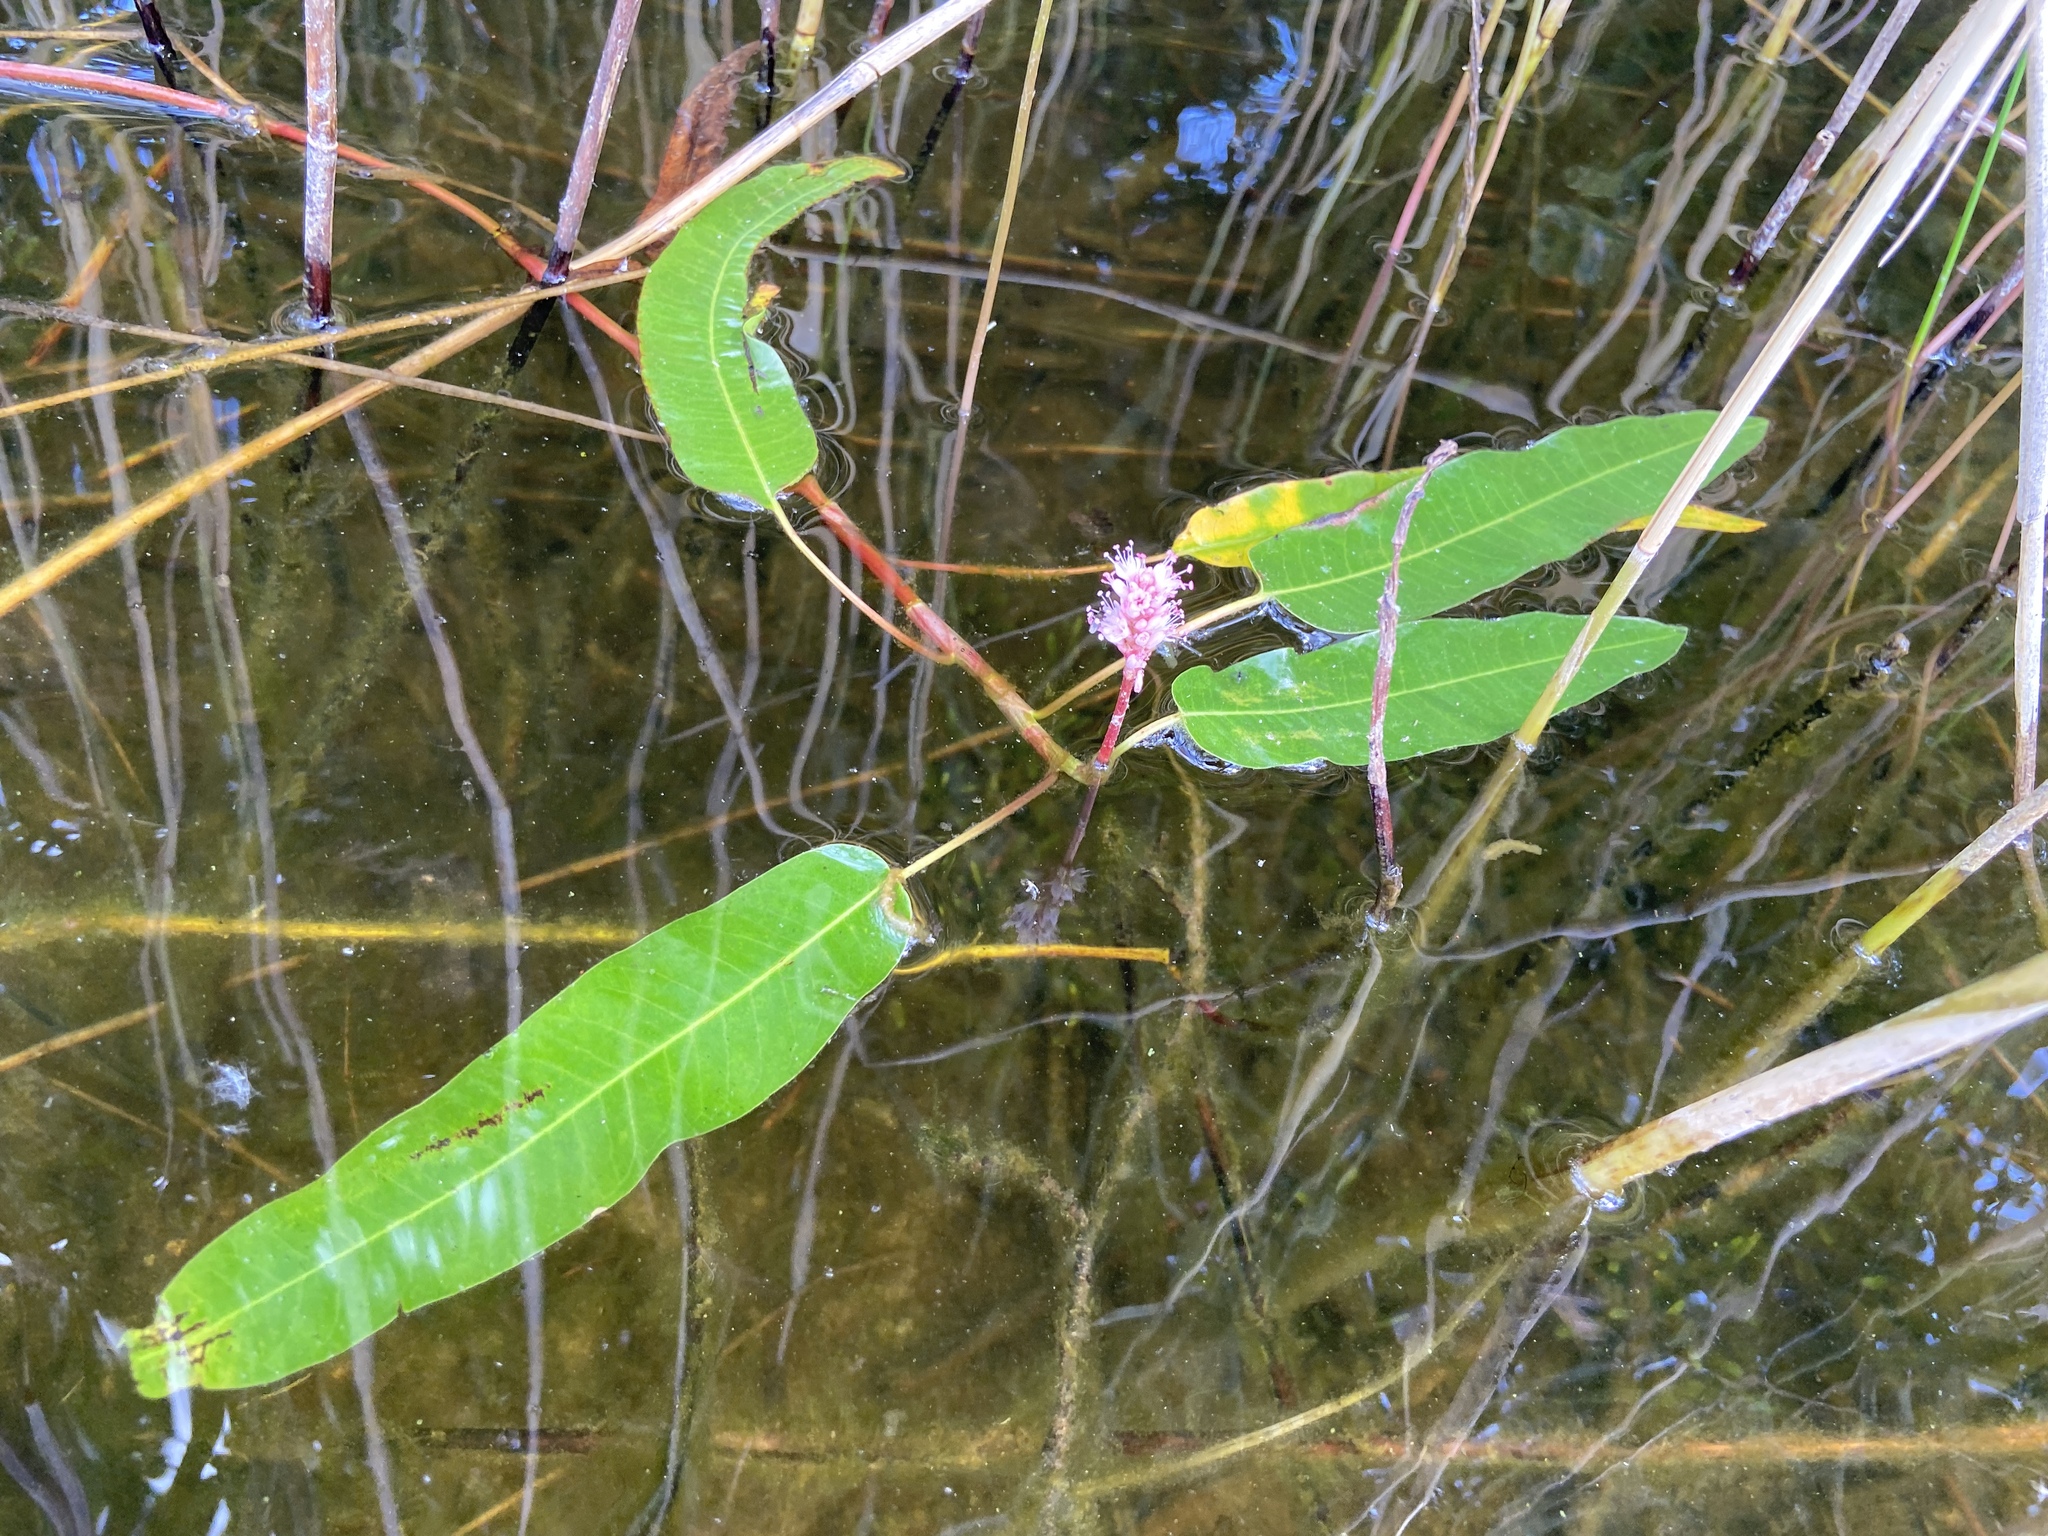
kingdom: Plantae
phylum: Tracheophyta
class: Magnoliopsida
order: Caryophyllales
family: Polygonaceae
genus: Persicaria
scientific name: Persicaria amphibia
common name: Amphibious bistort
